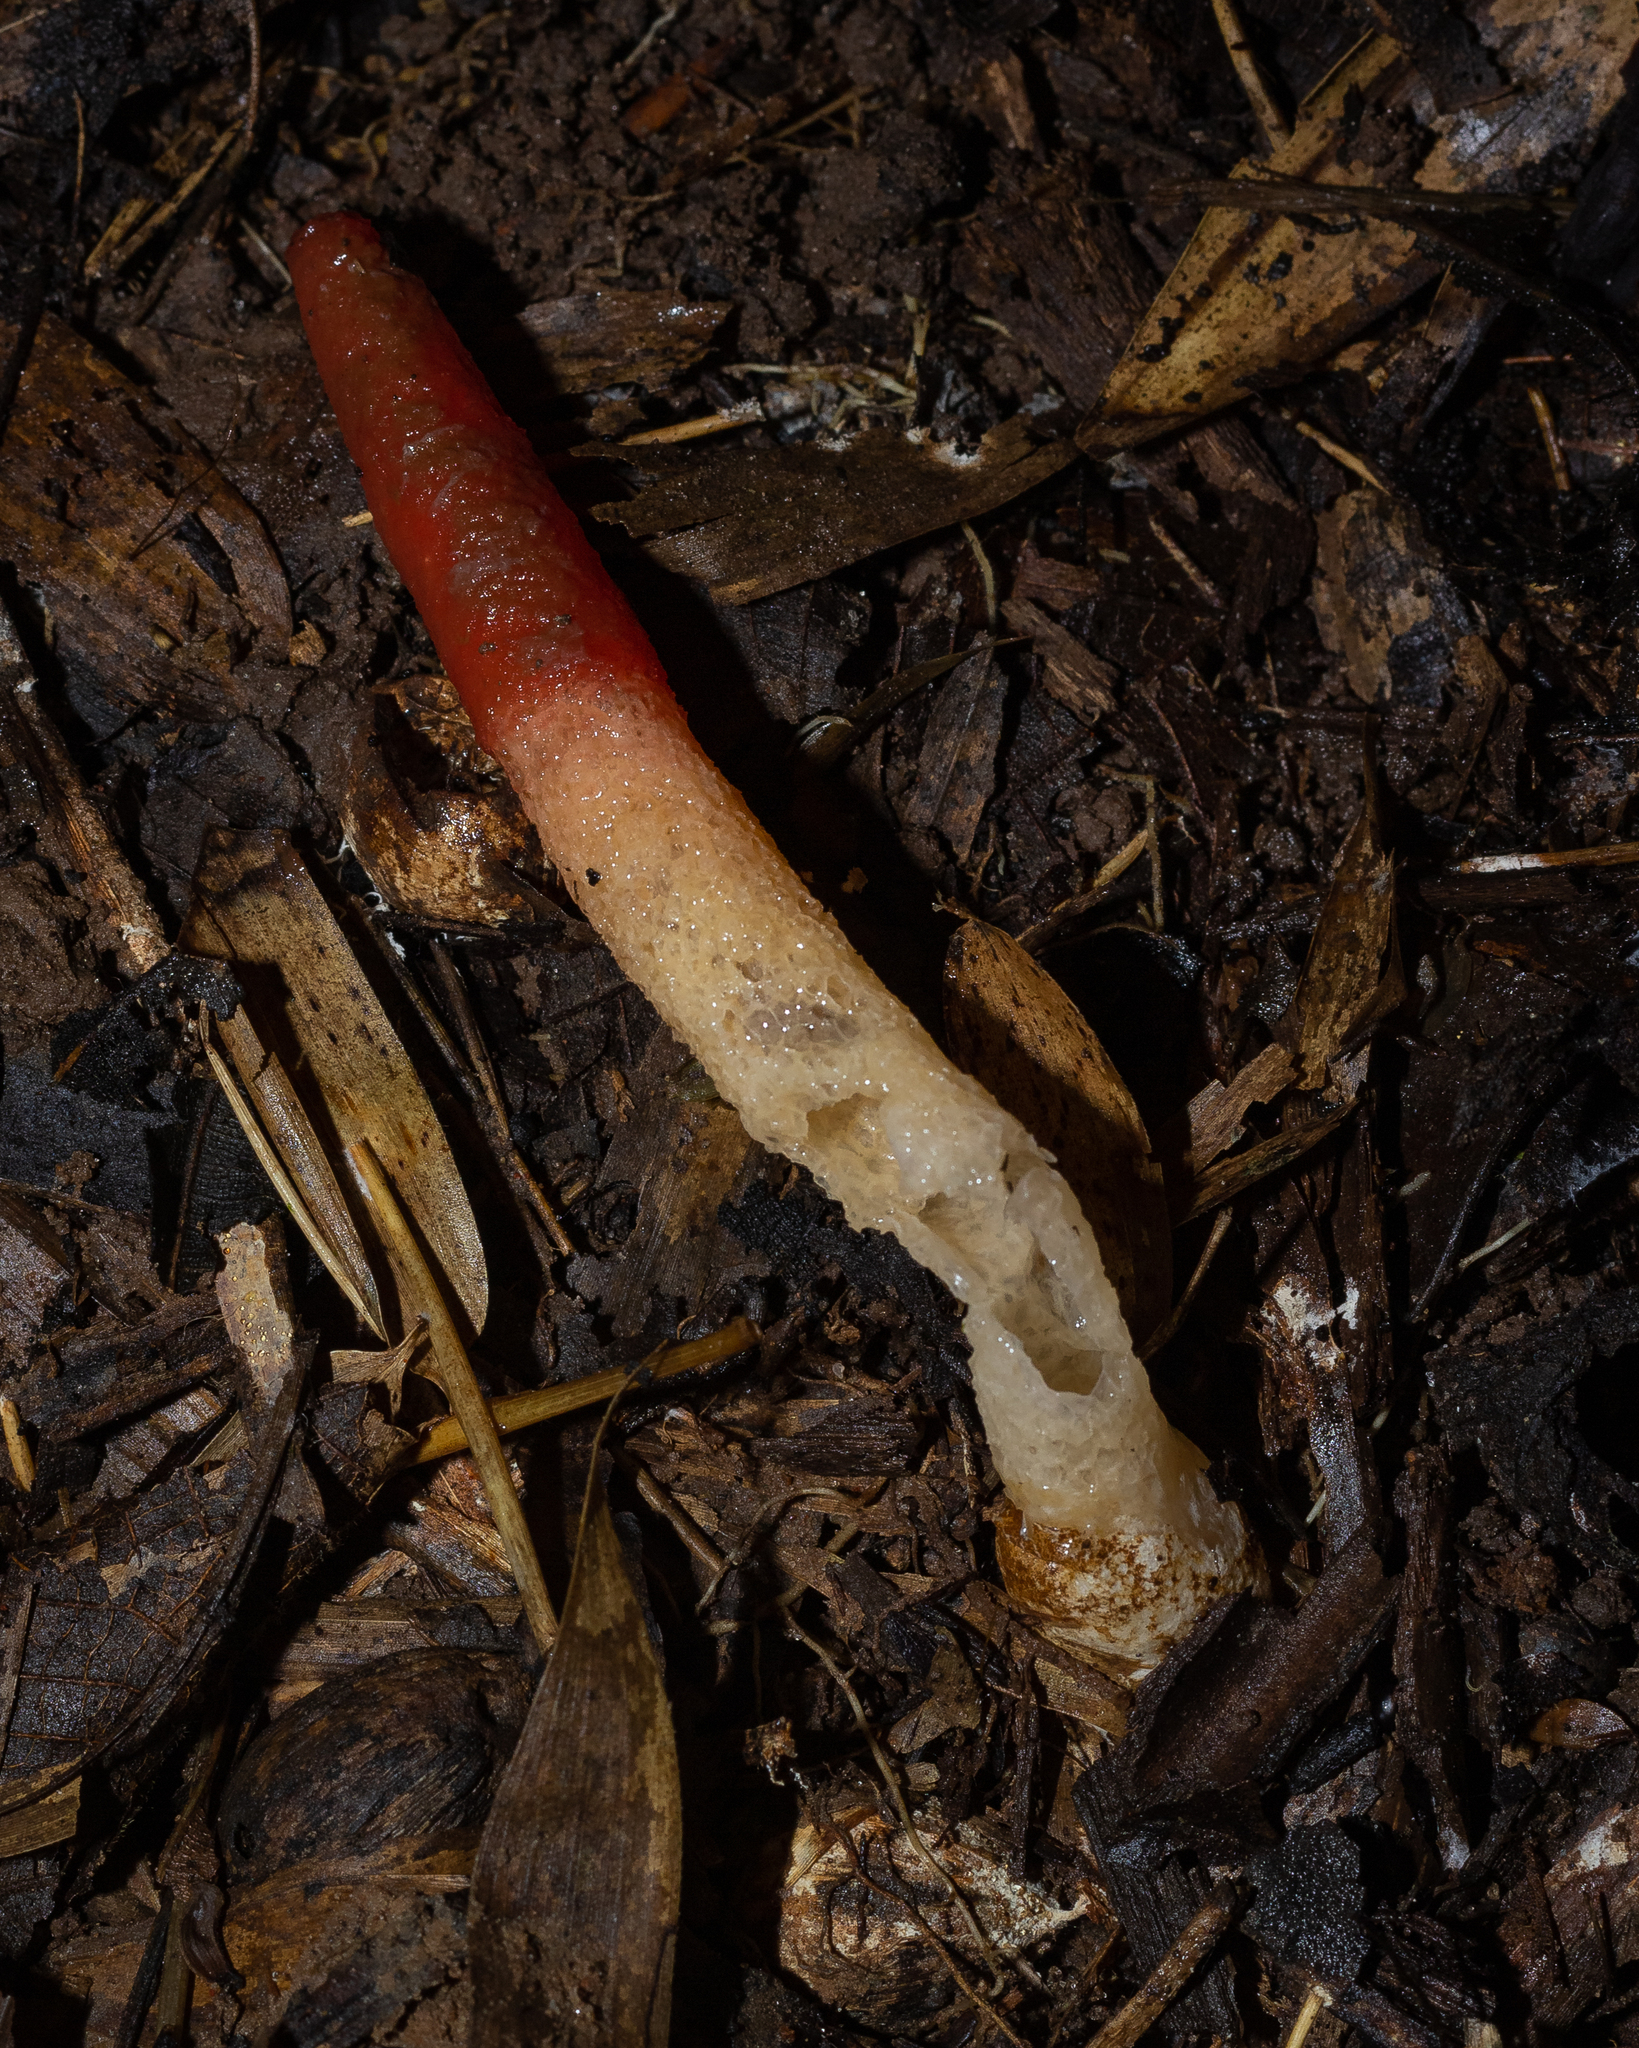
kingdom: Fungi
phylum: Basidiomycota
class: Agaricomycetes
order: Phallales
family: Phallaceae
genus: Mutinus
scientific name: Mutinus argentinus
